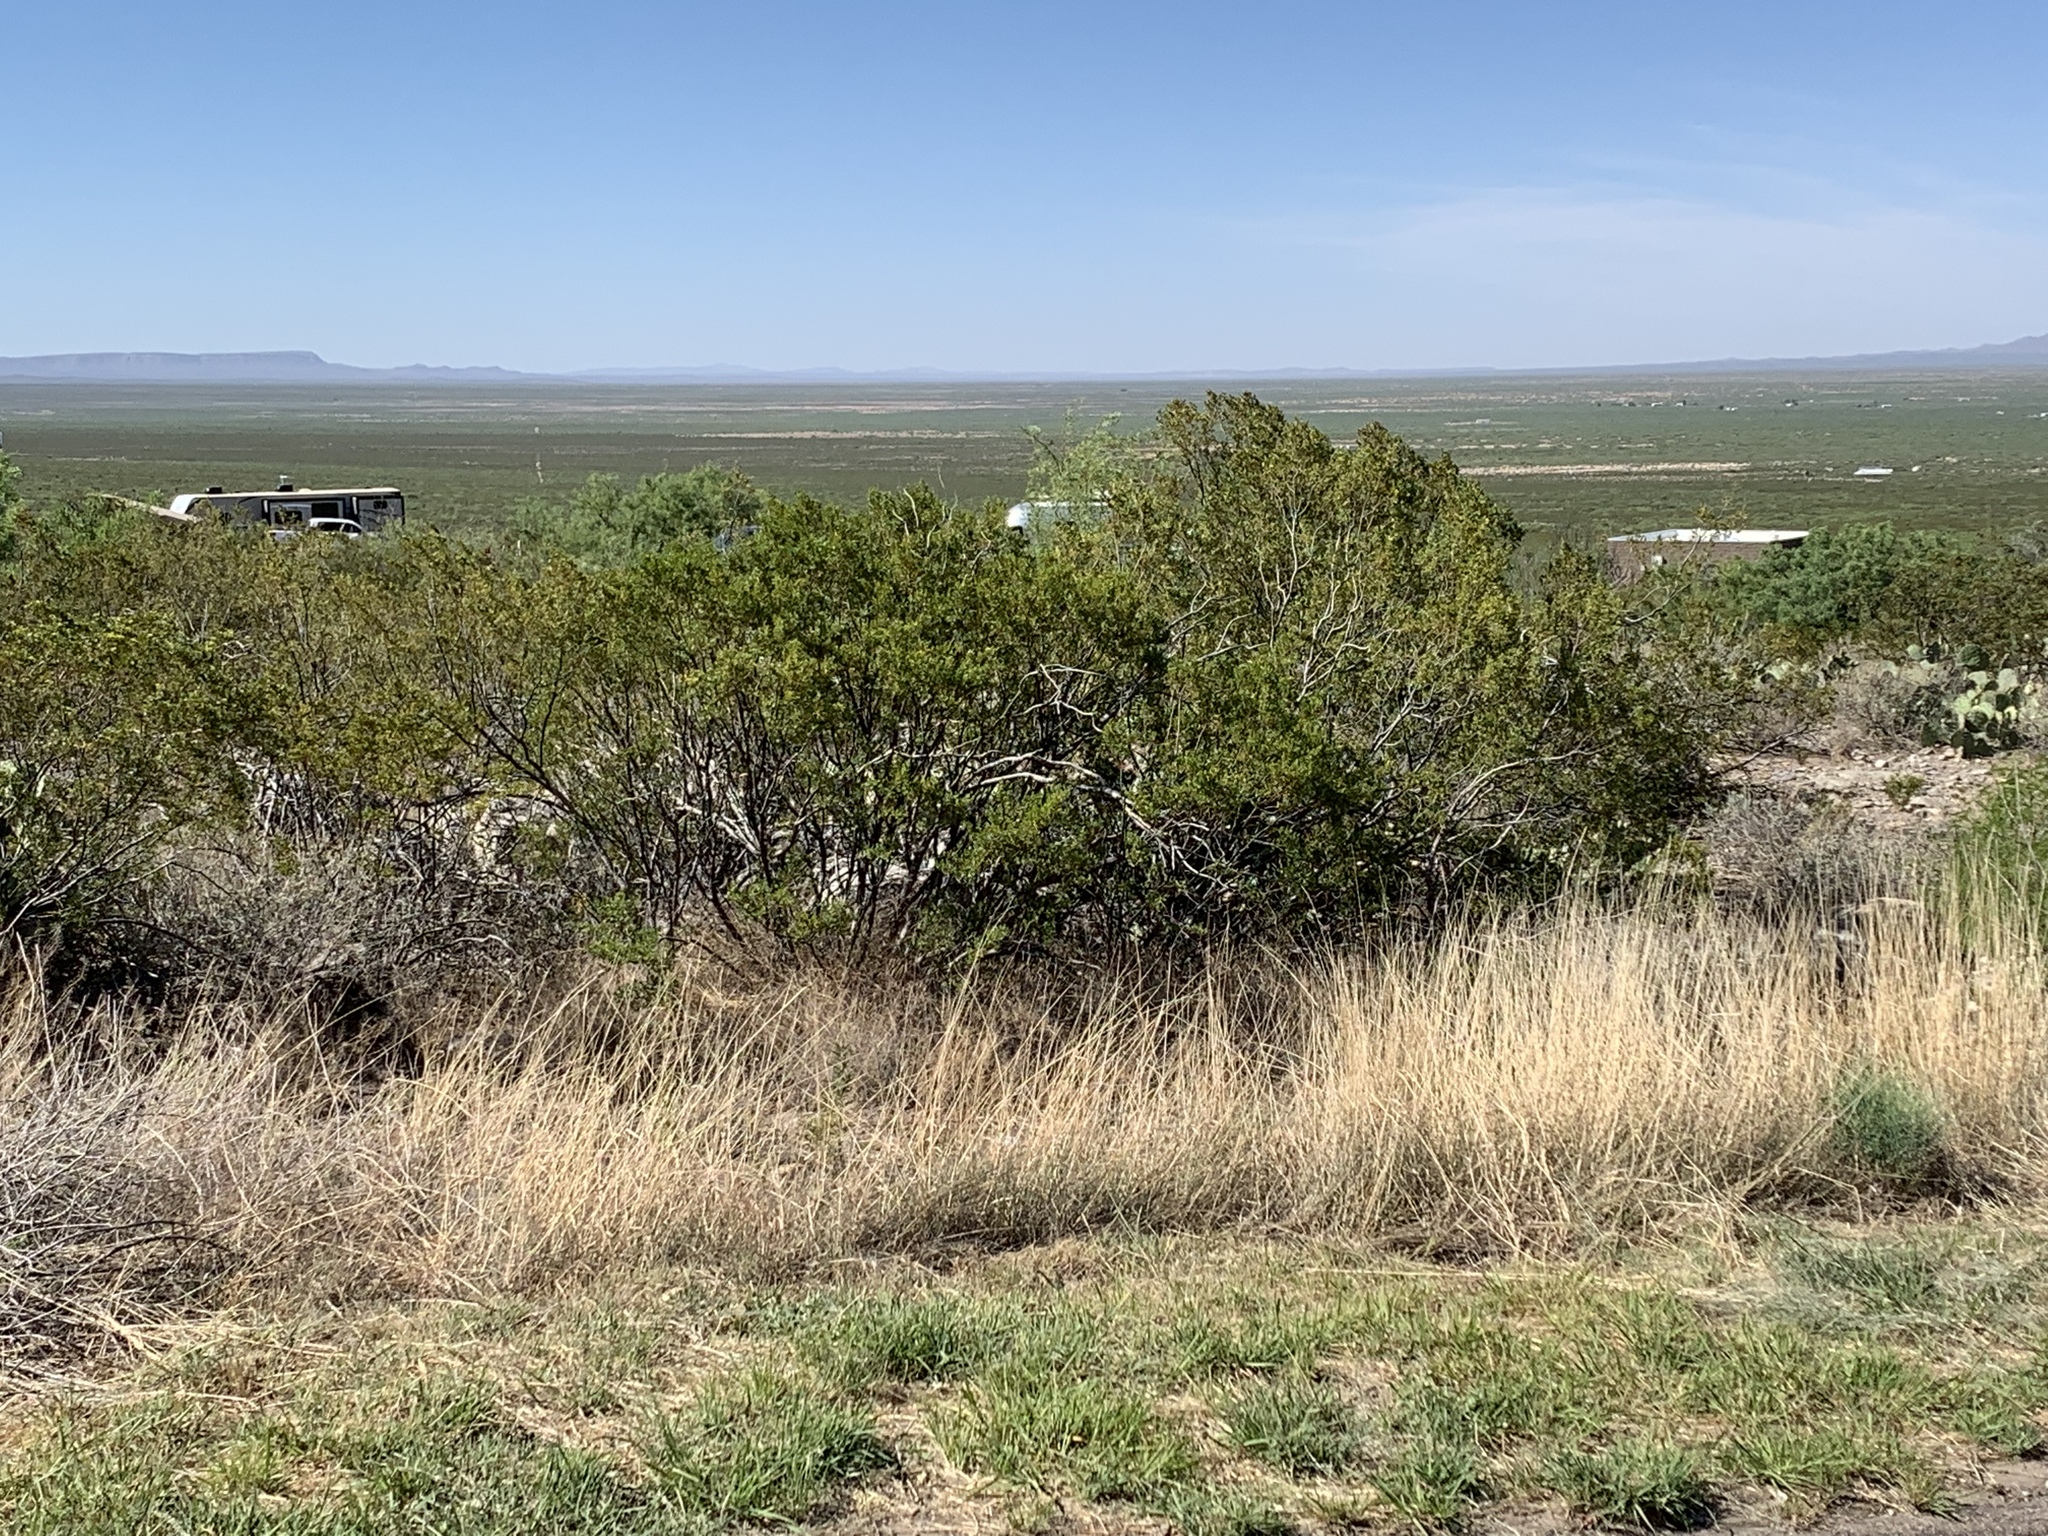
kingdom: Plantae
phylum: Tracheophyta
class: Magnoliopsida
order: Zygophyllales
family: Zygophyllaceae
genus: Larrea
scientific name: Larrea tridentata
